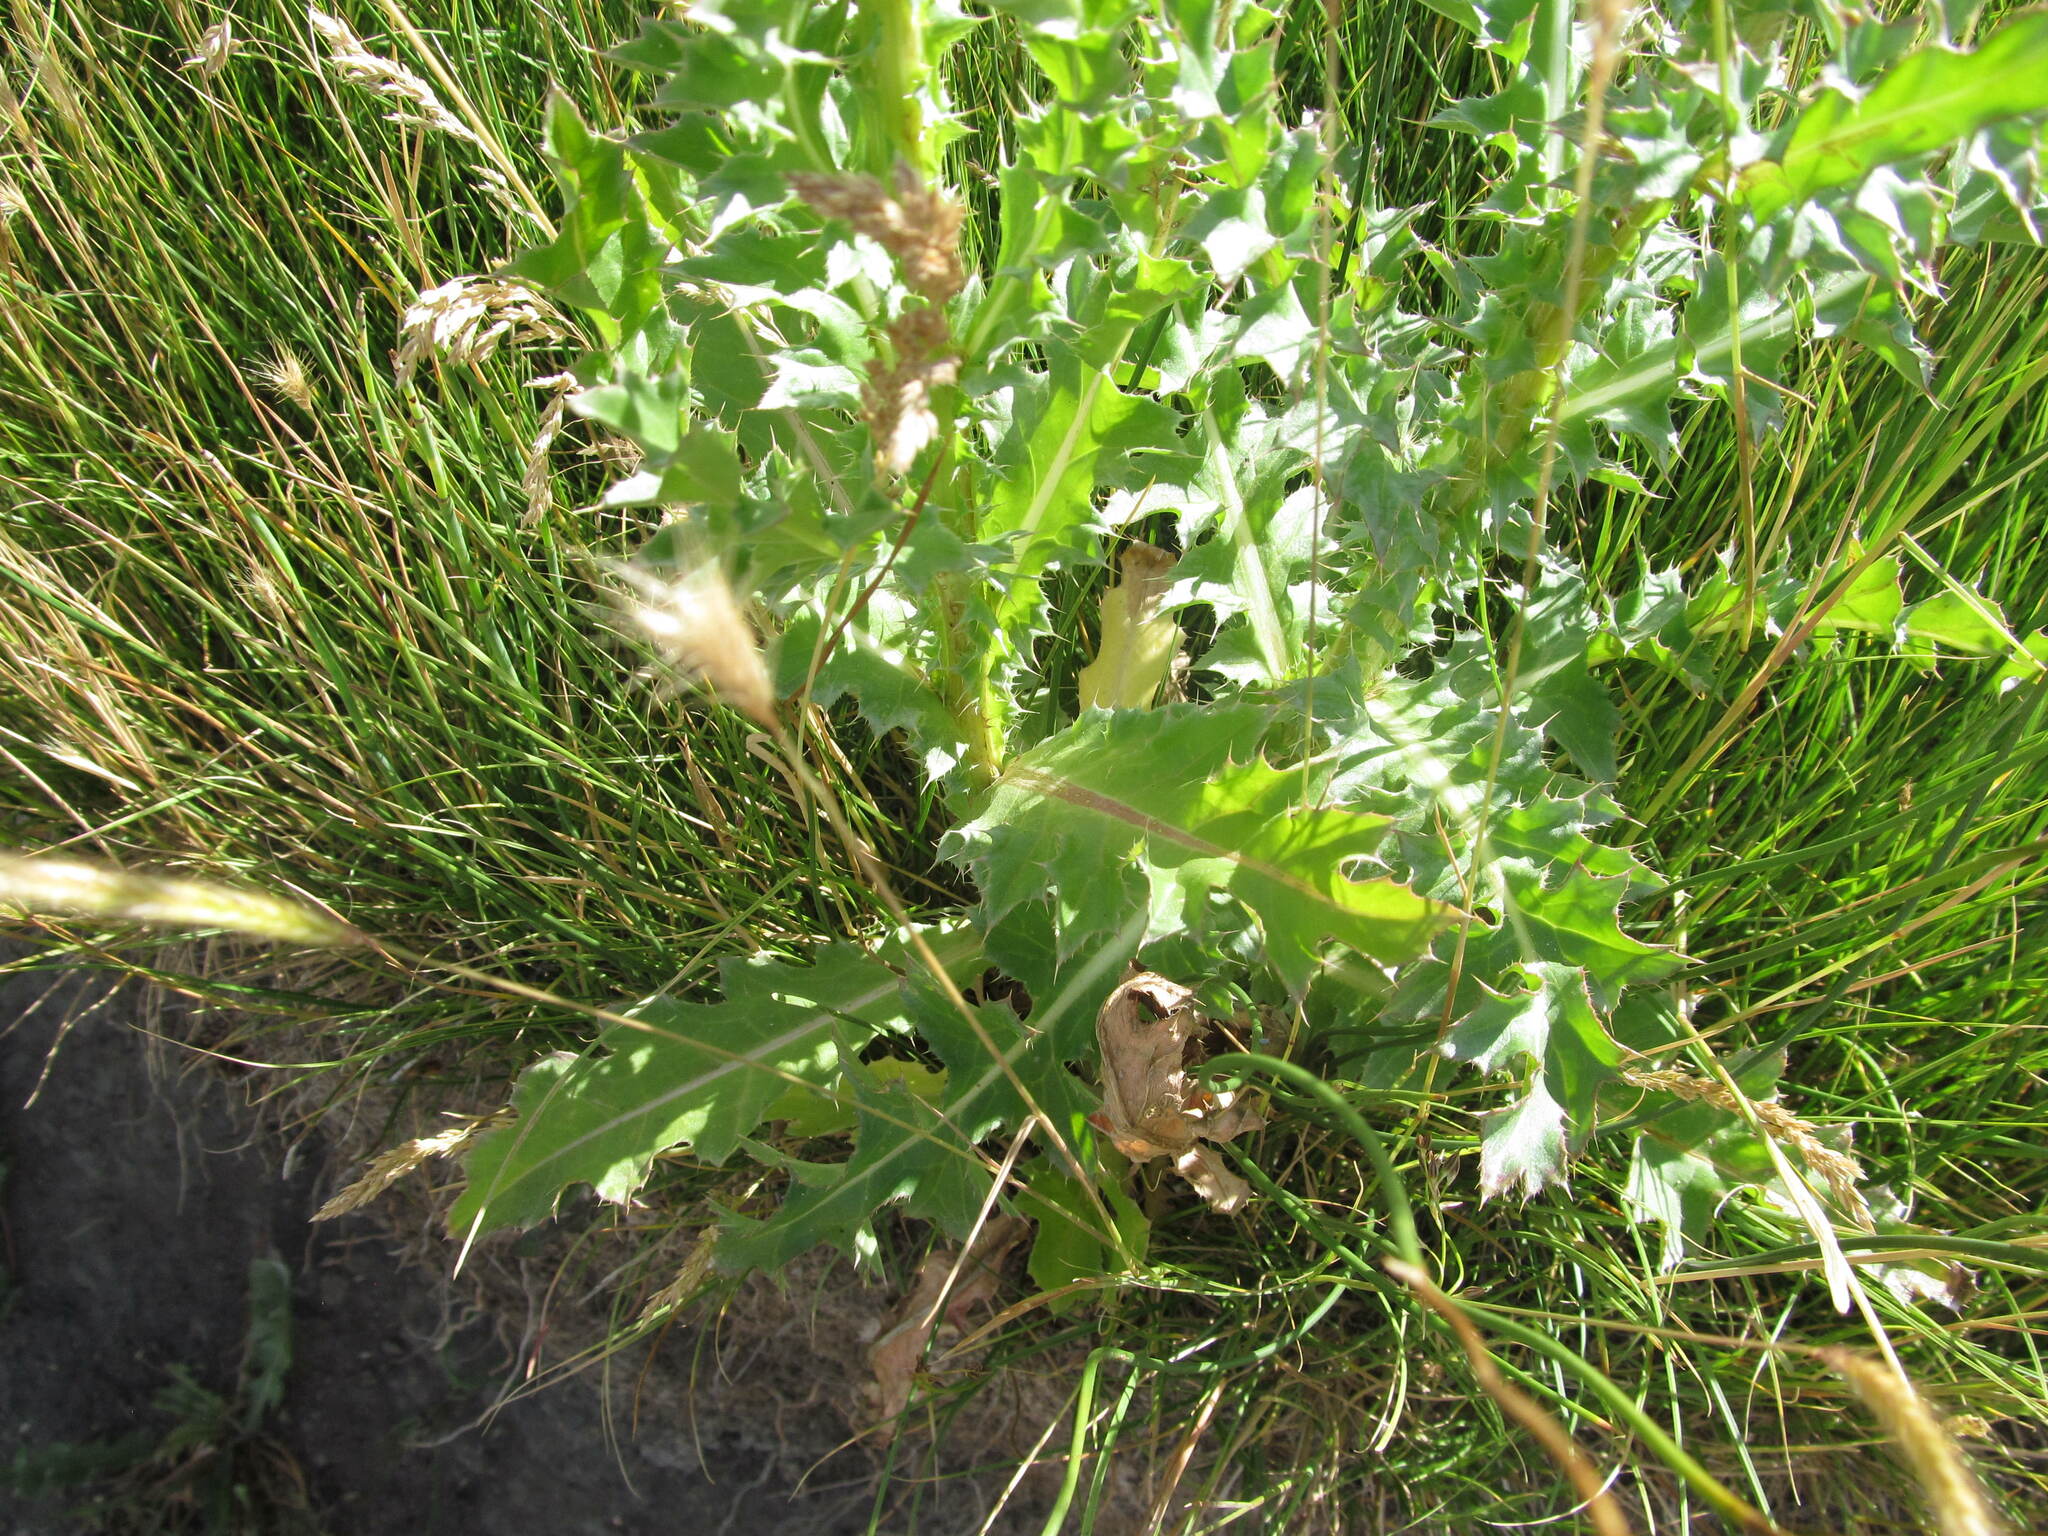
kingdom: Plantae
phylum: Tracheophyta
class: Magnoliopsida
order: Asterales
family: Asteraceae
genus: Carduus
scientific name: Carduus nutans
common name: Musk thistle
